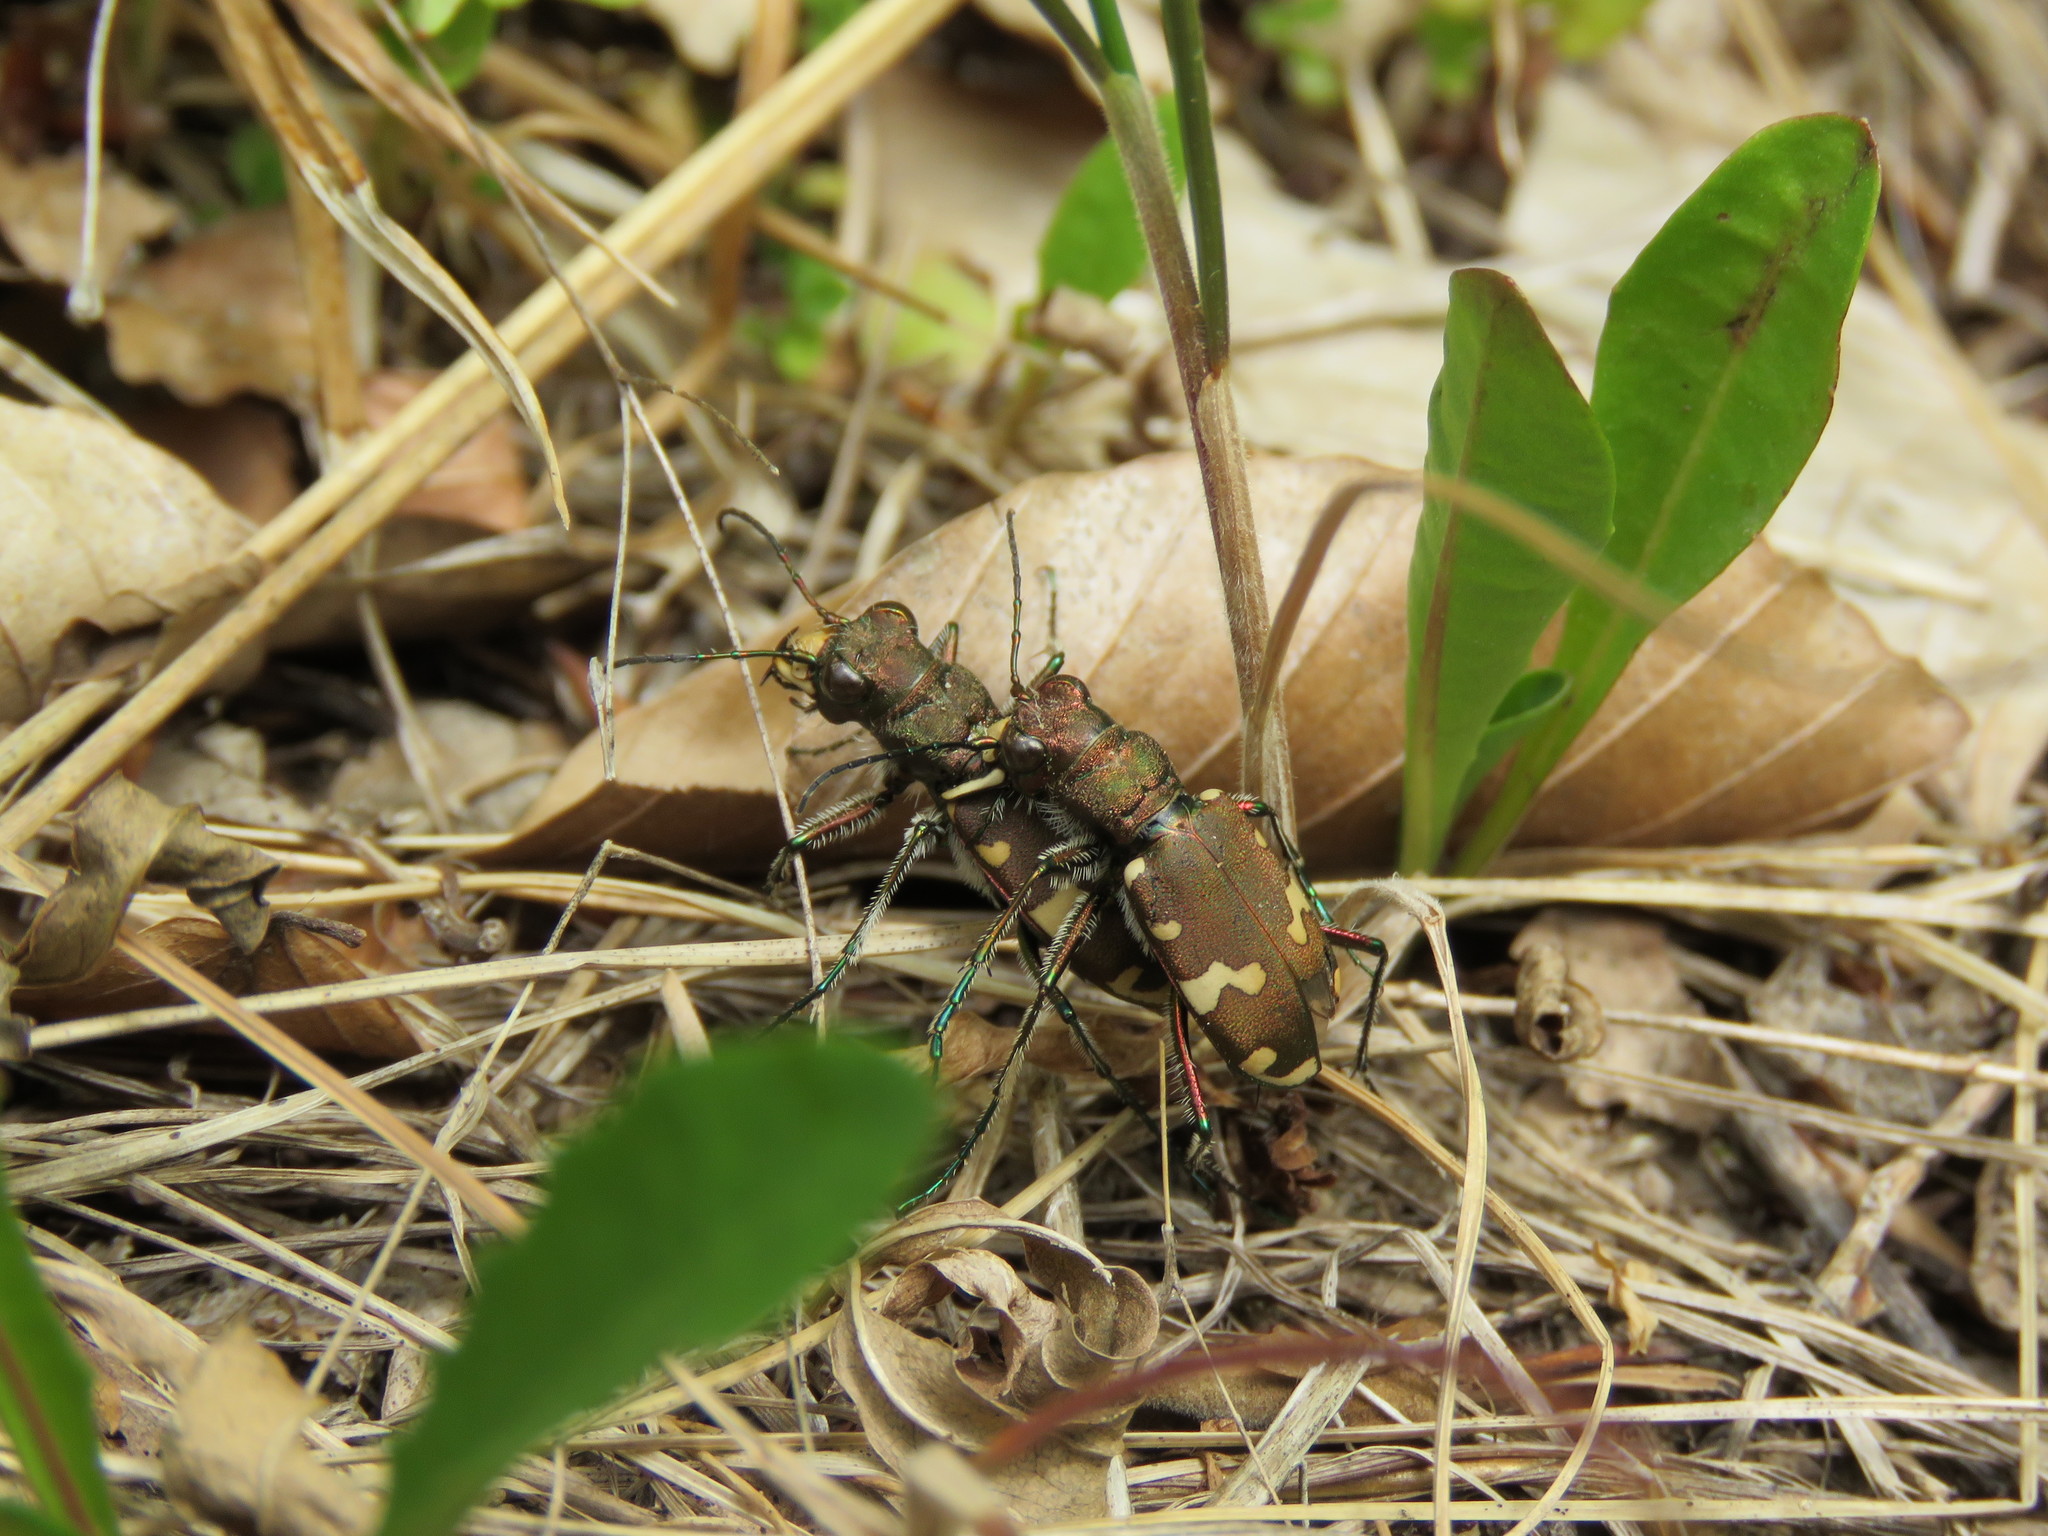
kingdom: Animalia
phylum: Arthropoda
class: Insecta
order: Coleoptera
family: Carabidae
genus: Cicindela
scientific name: Cicindela sylvicola
